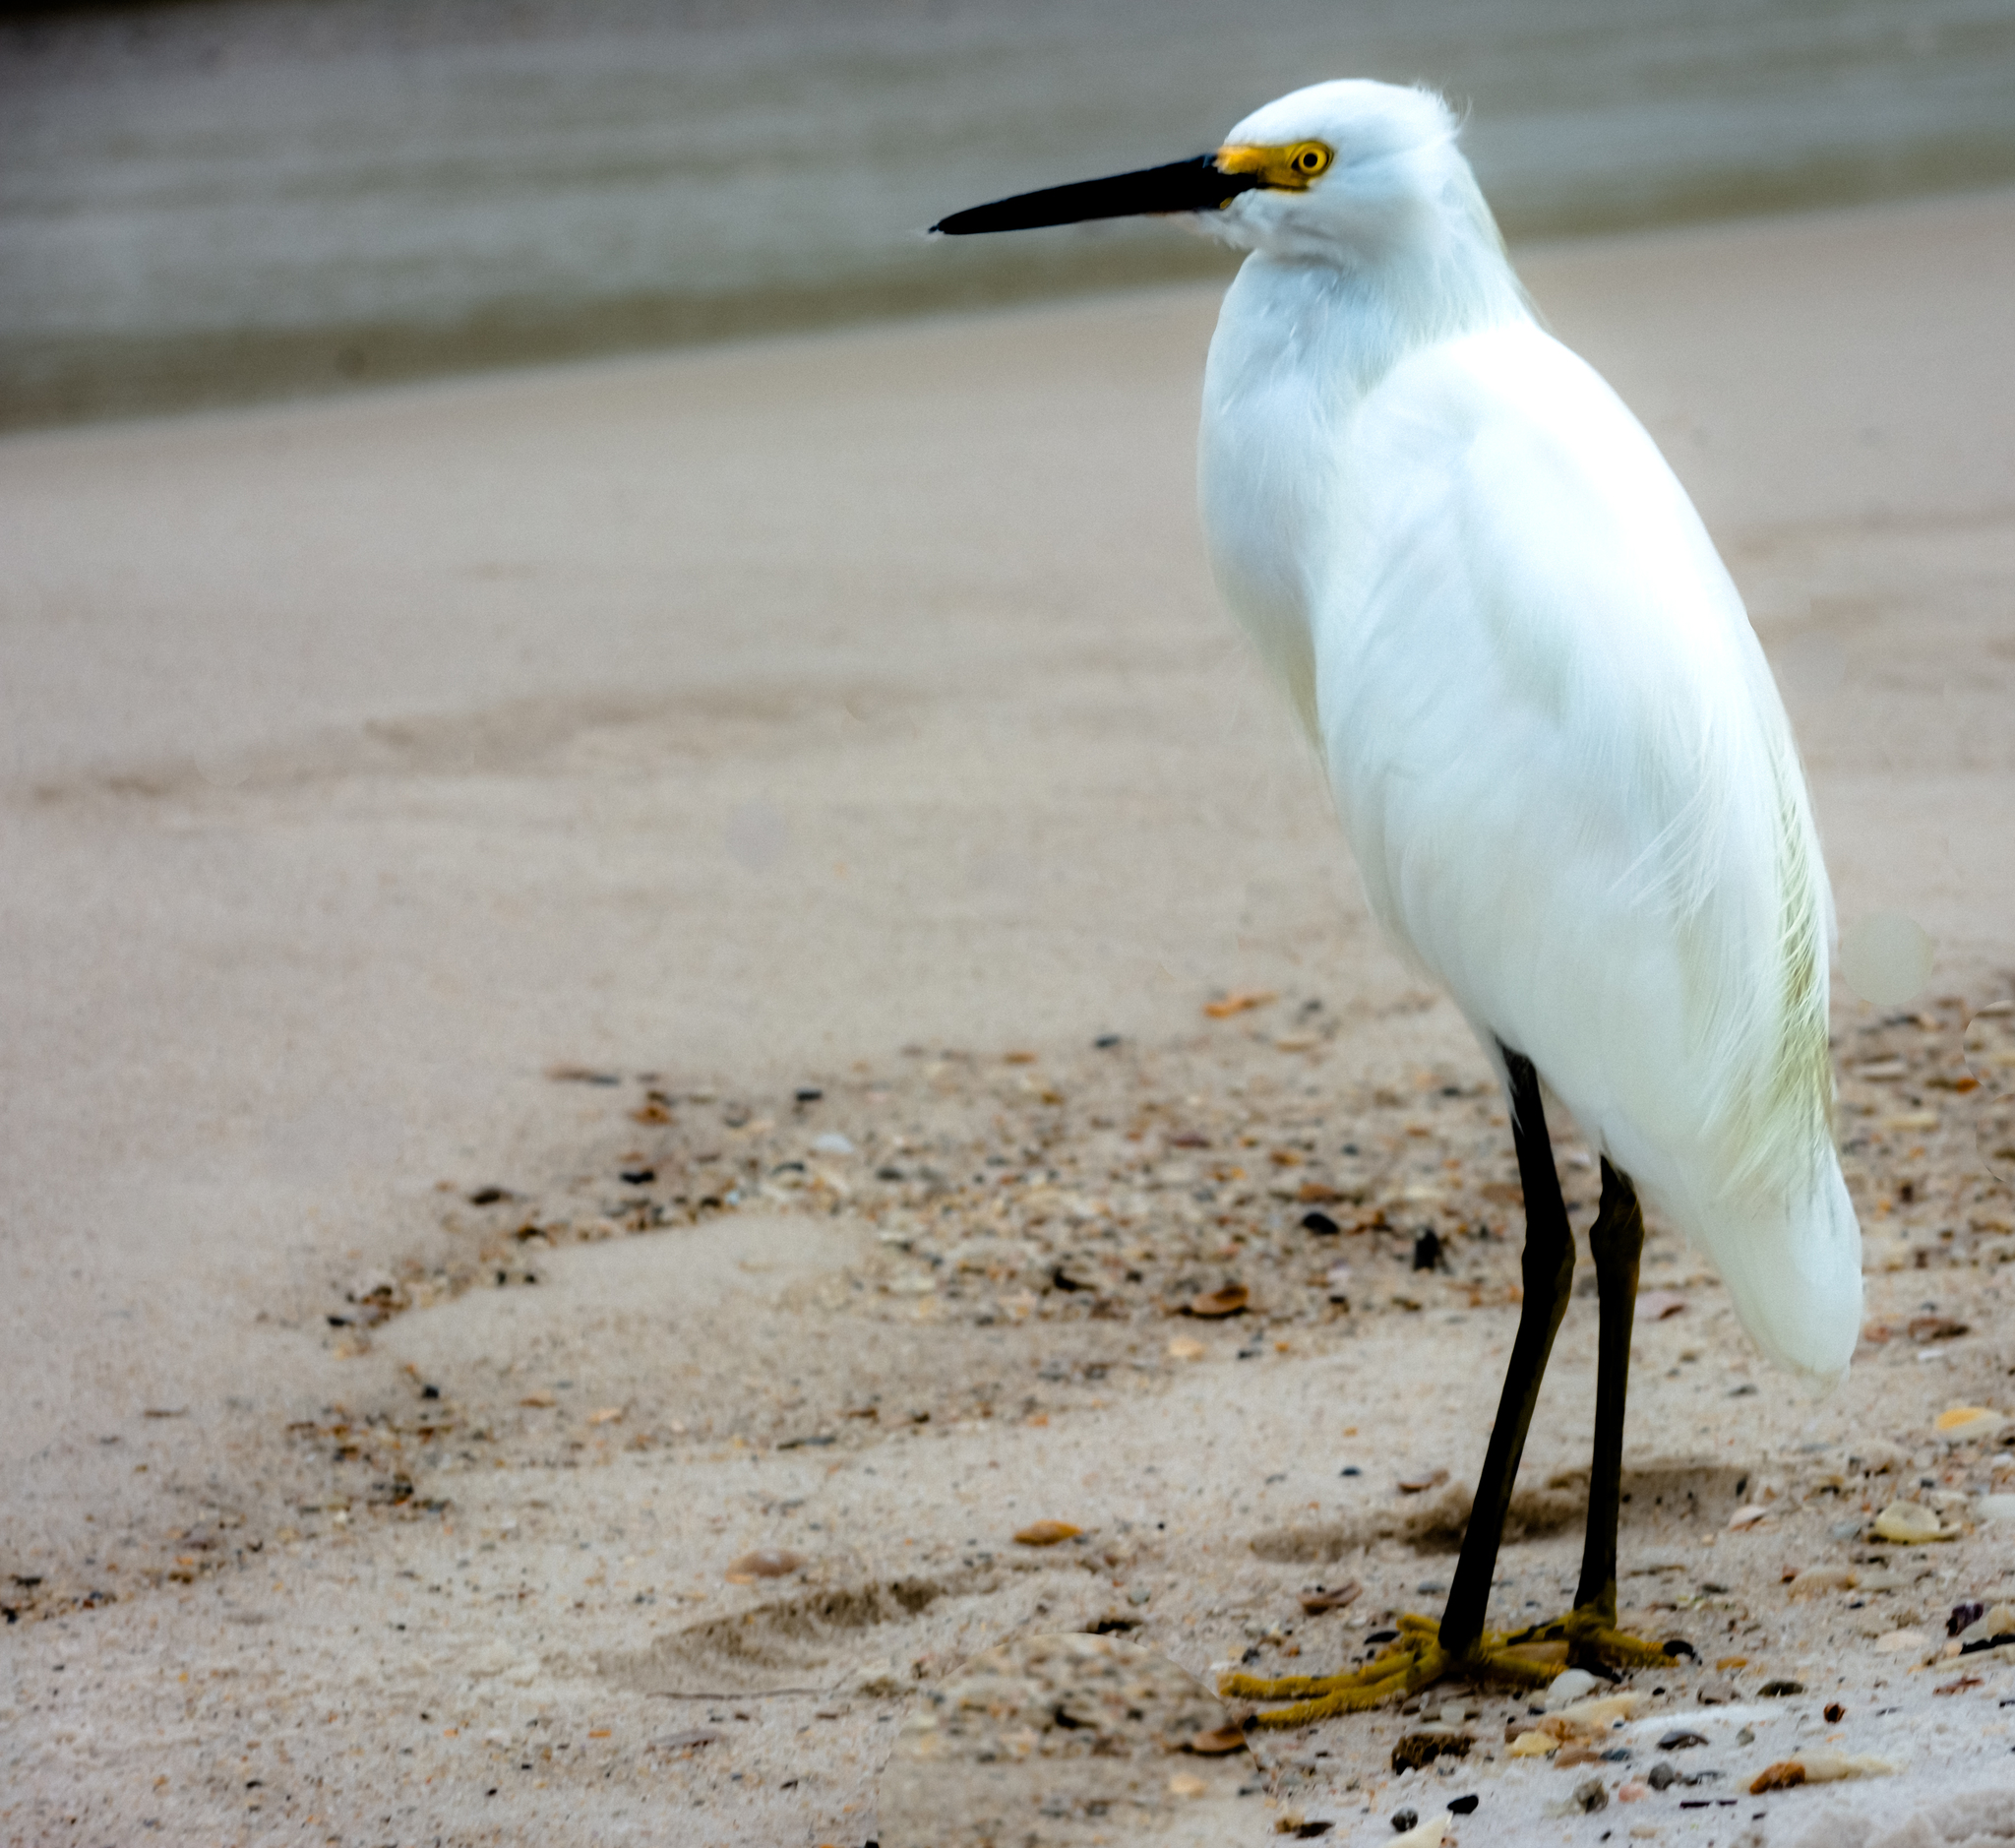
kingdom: Animalia
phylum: Chordata
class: Aves
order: Pelecaniformes
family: Ardeidae
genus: Egretta
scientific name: Egretta thula
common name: Snowy egret
